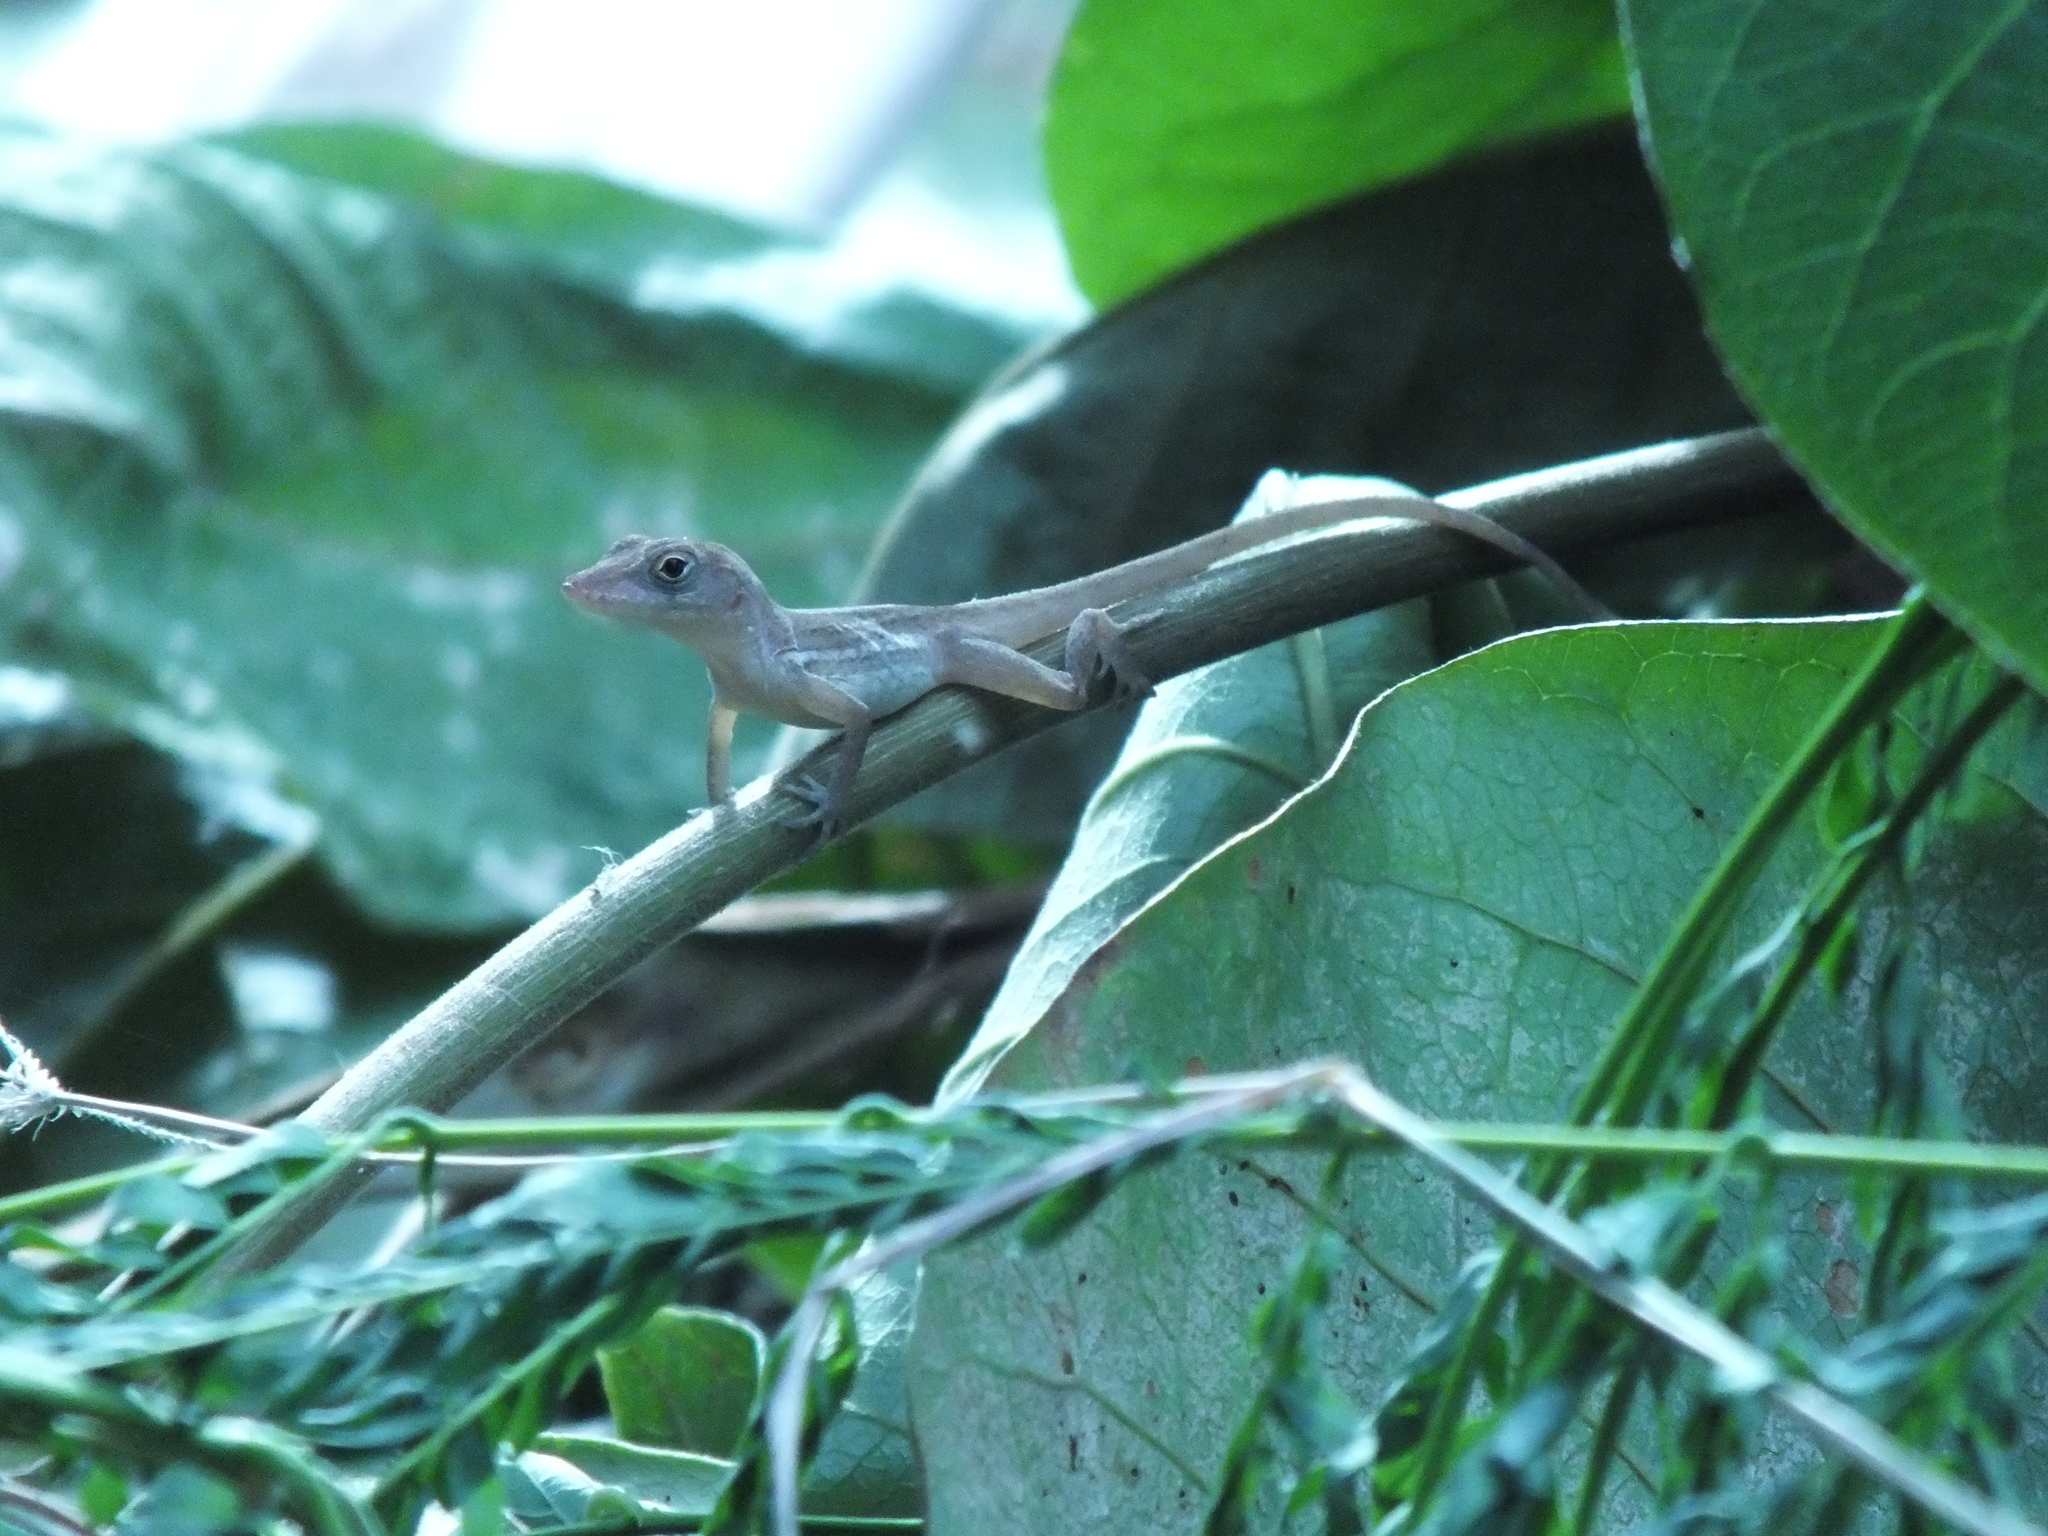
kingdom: Animalia
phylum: Chordata
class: Squamata
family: Dactyloidae
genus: Anolis
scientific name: Anolis lineatopus
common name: Stripefoot anole
